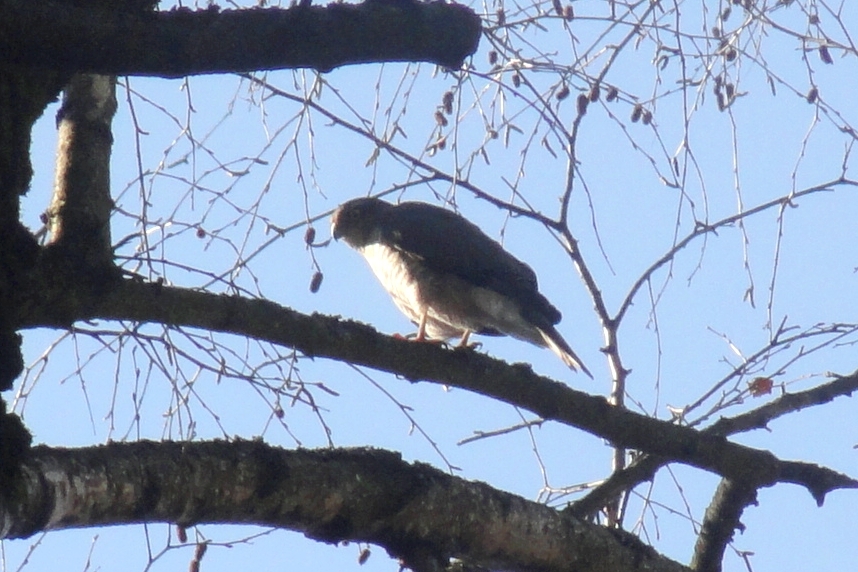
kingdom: Animalia
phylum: Chordata
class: Aves
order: Accipitriformes
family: Accipitridae
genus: Accipiter
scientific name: Accipiter nisus
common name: Eurasian sparrowhawk
